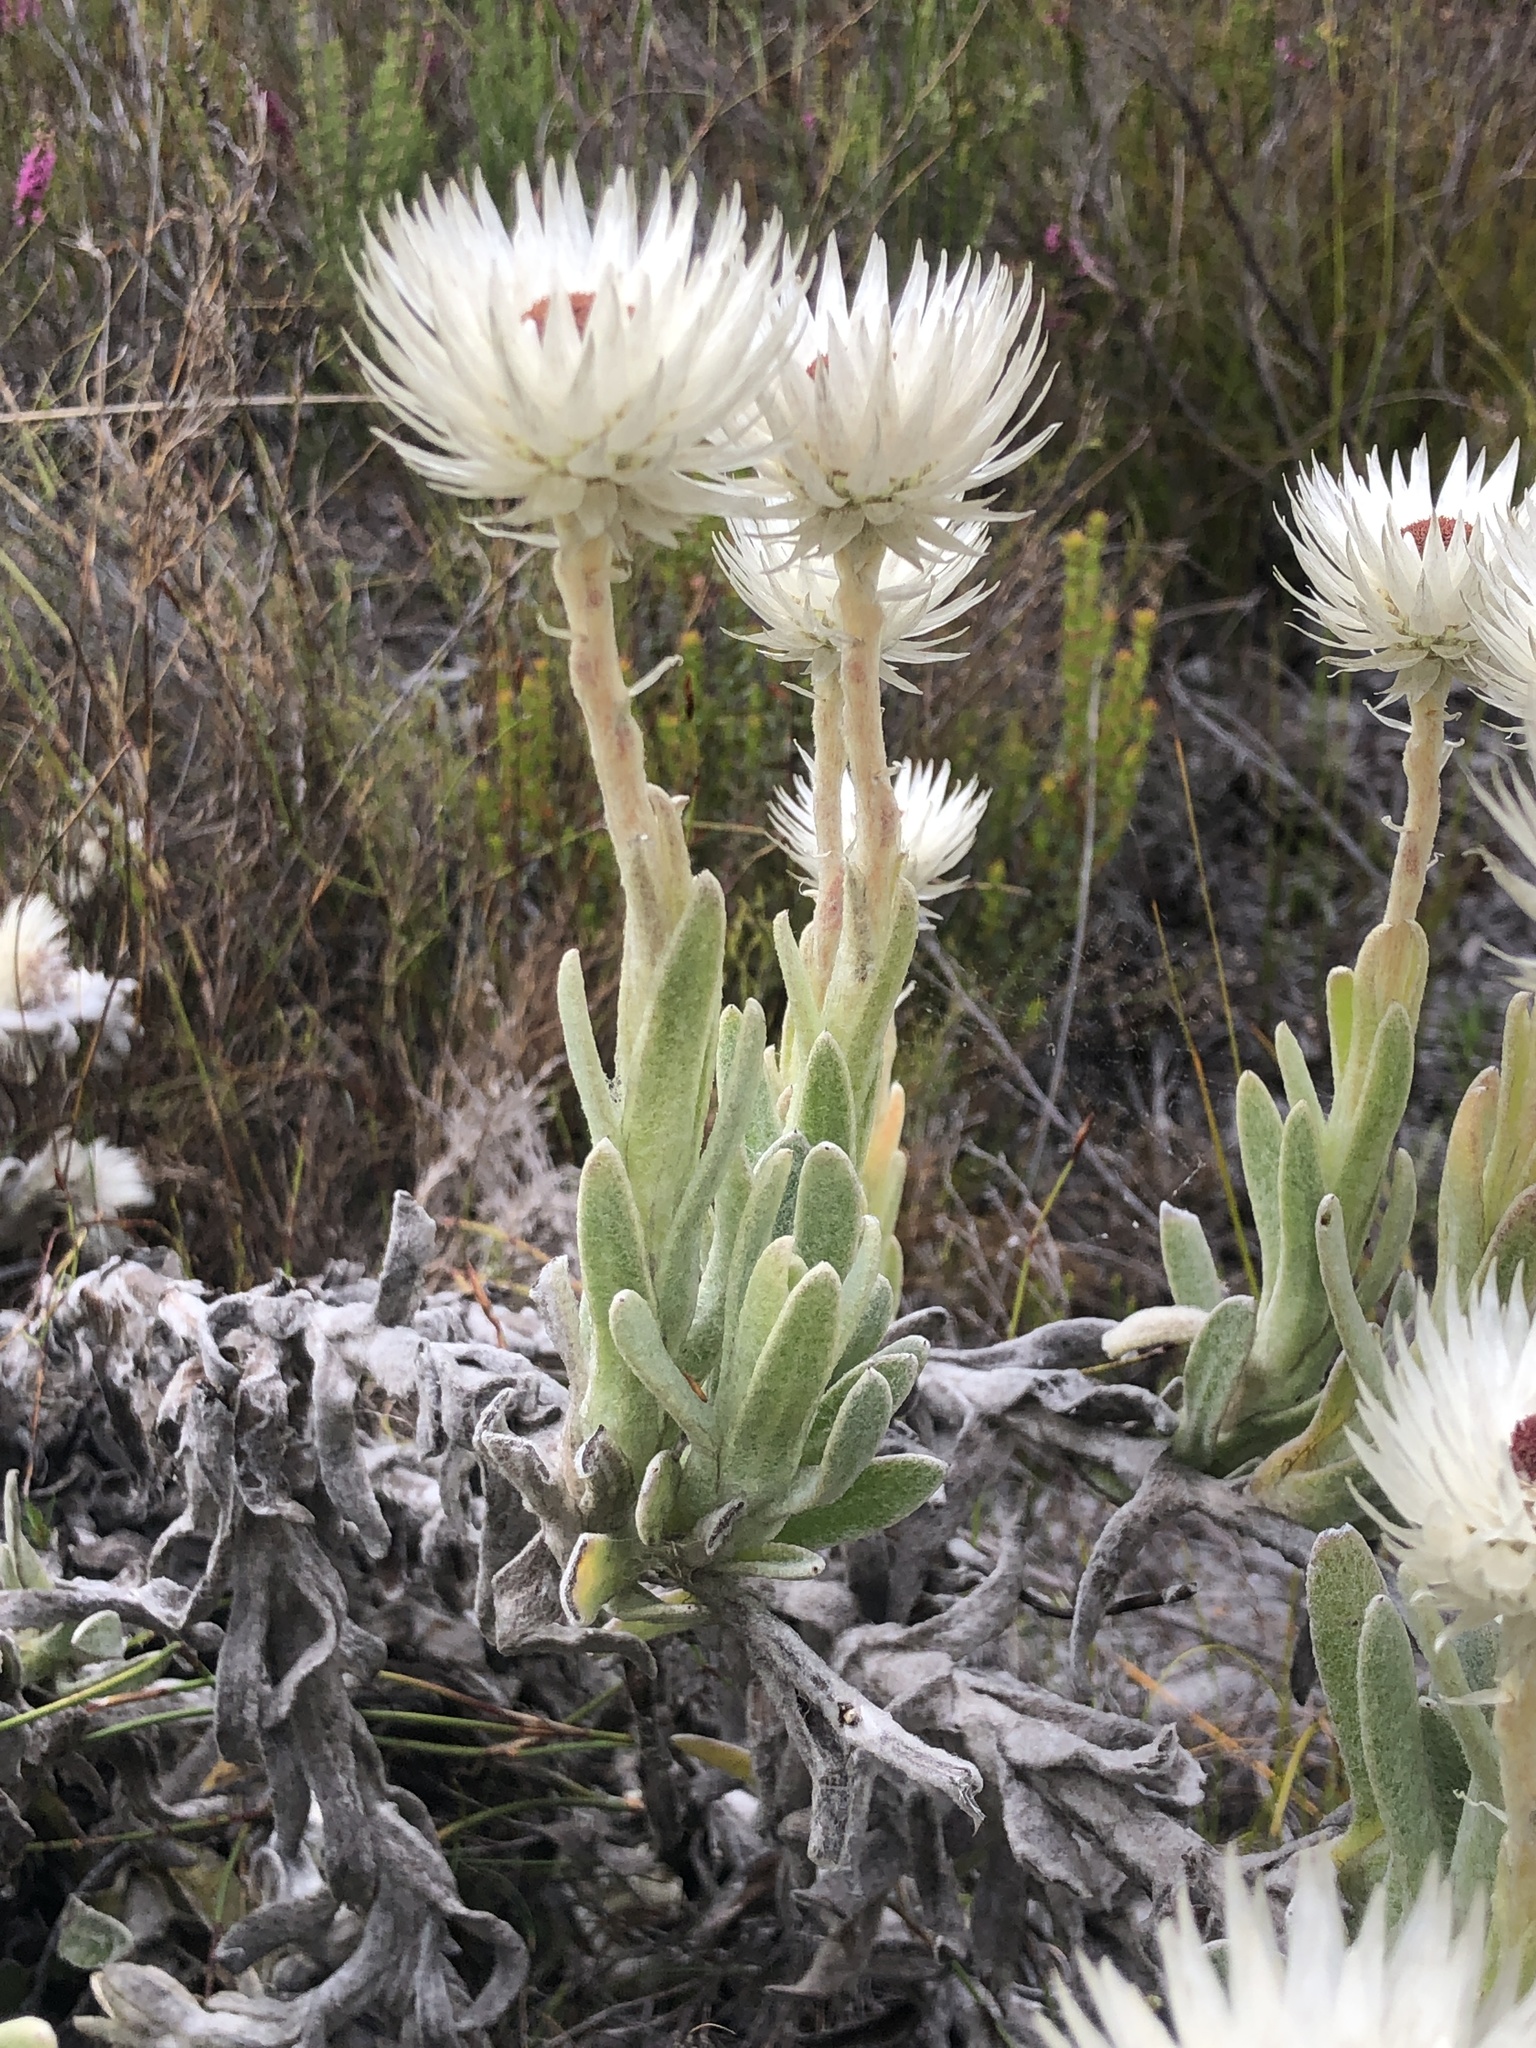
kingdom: Plantae
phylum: Tracheophyta
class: Magnoliopsida
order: Asterales
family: Asteraceae
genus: Syncarpha
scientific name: Syncarpha vestita
